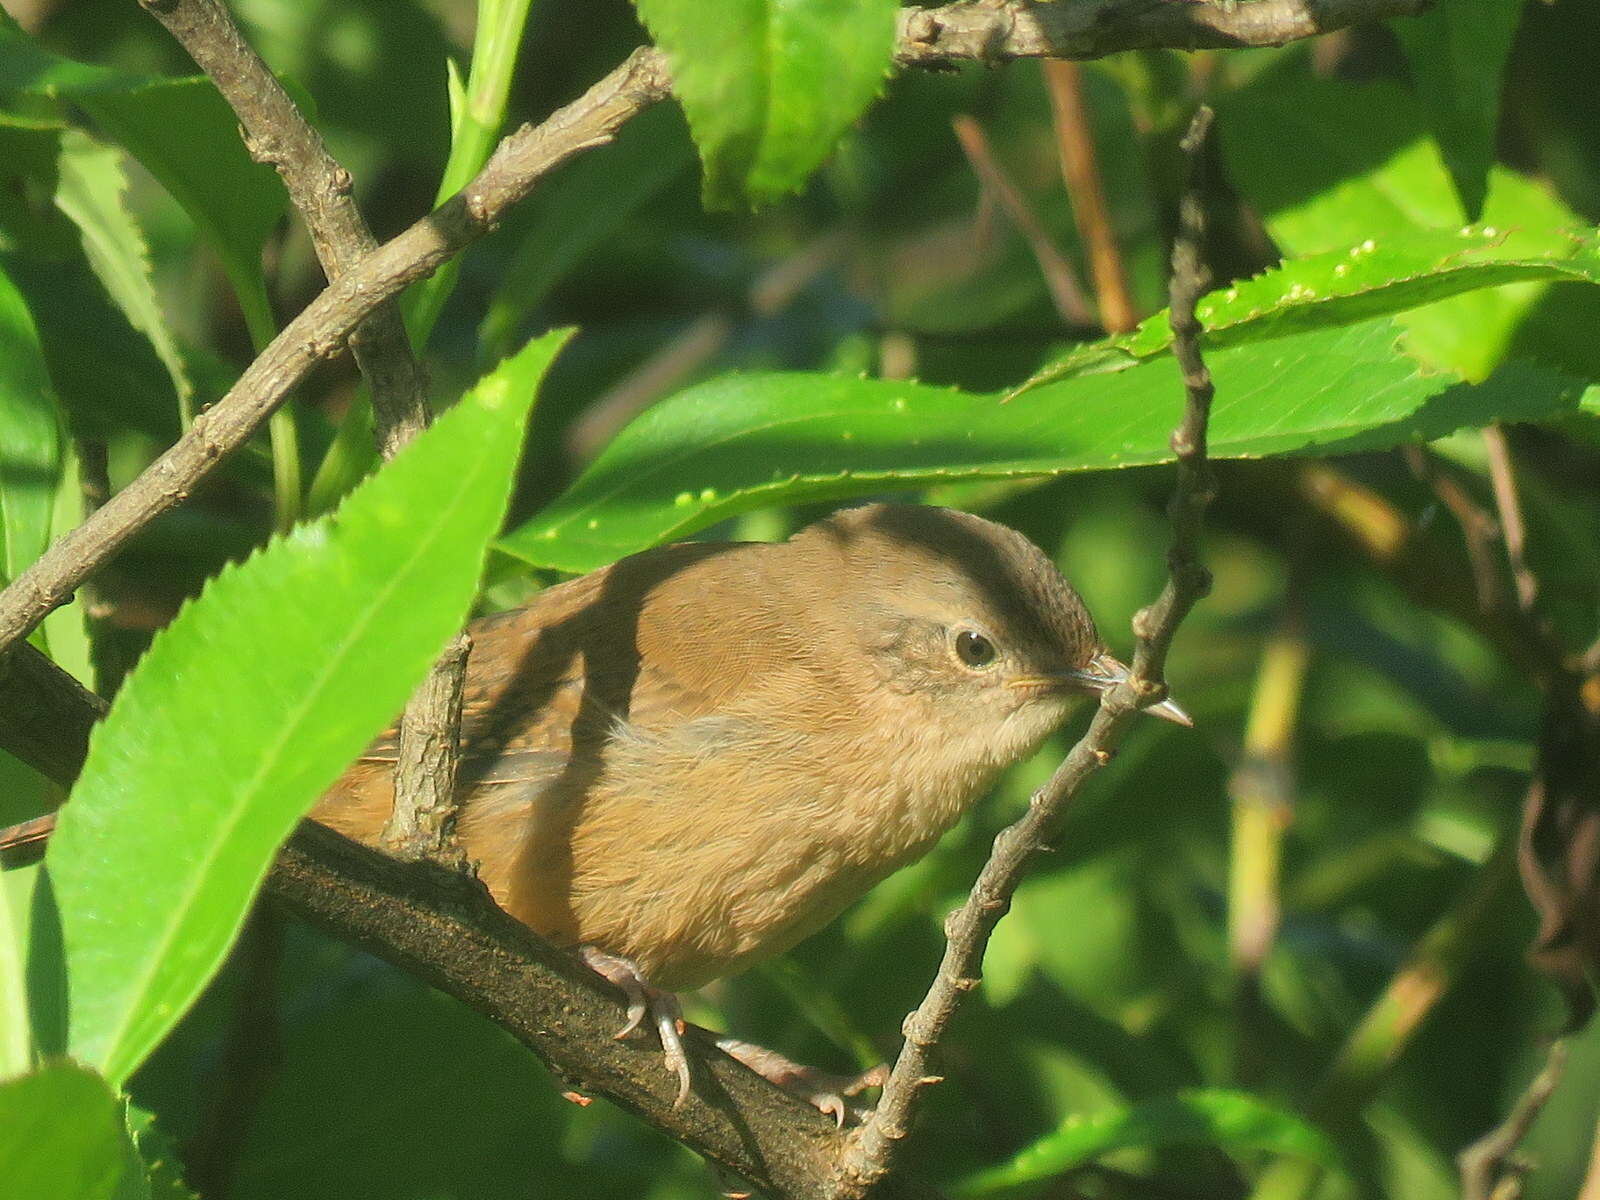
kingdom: Animalia
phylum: Chordata
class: Aves
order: Passeriformes
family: Troglodytidae
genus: Troglodytes
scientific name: Troglodytes aedon
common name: House wren
